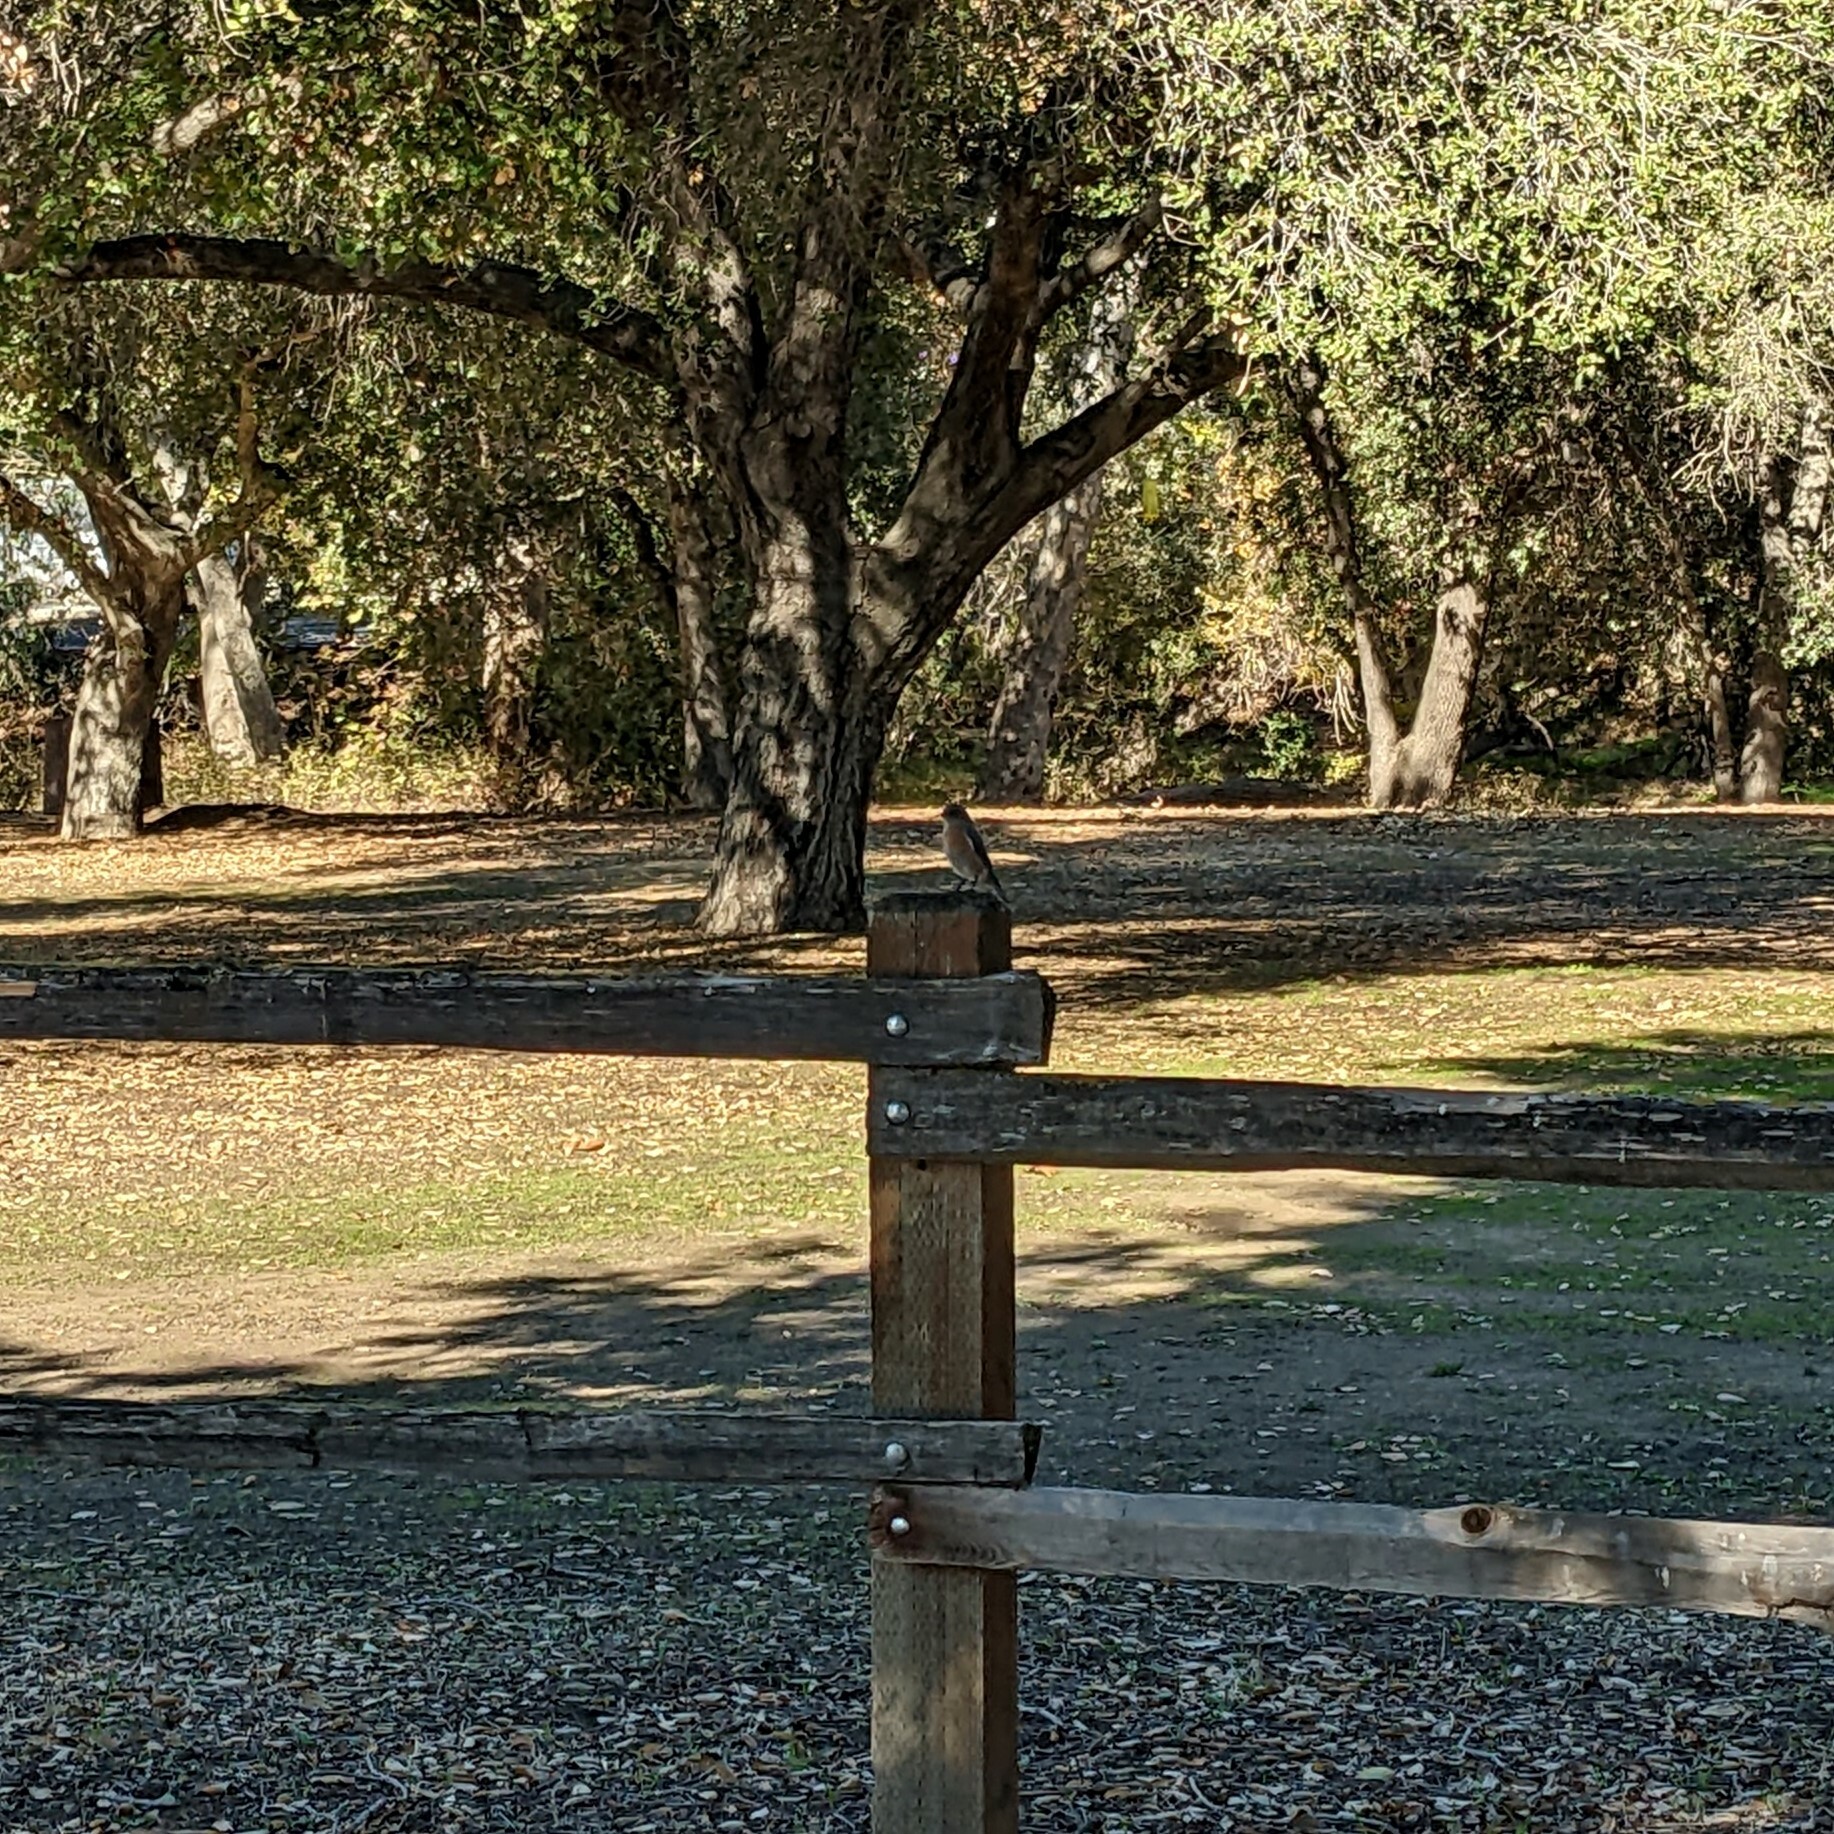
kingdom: Animalia
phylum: Chordata
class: Aves
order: Passeriformes
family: Turdidae
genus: Sialia
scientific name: Sialia mexicana
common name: Western bluebird
